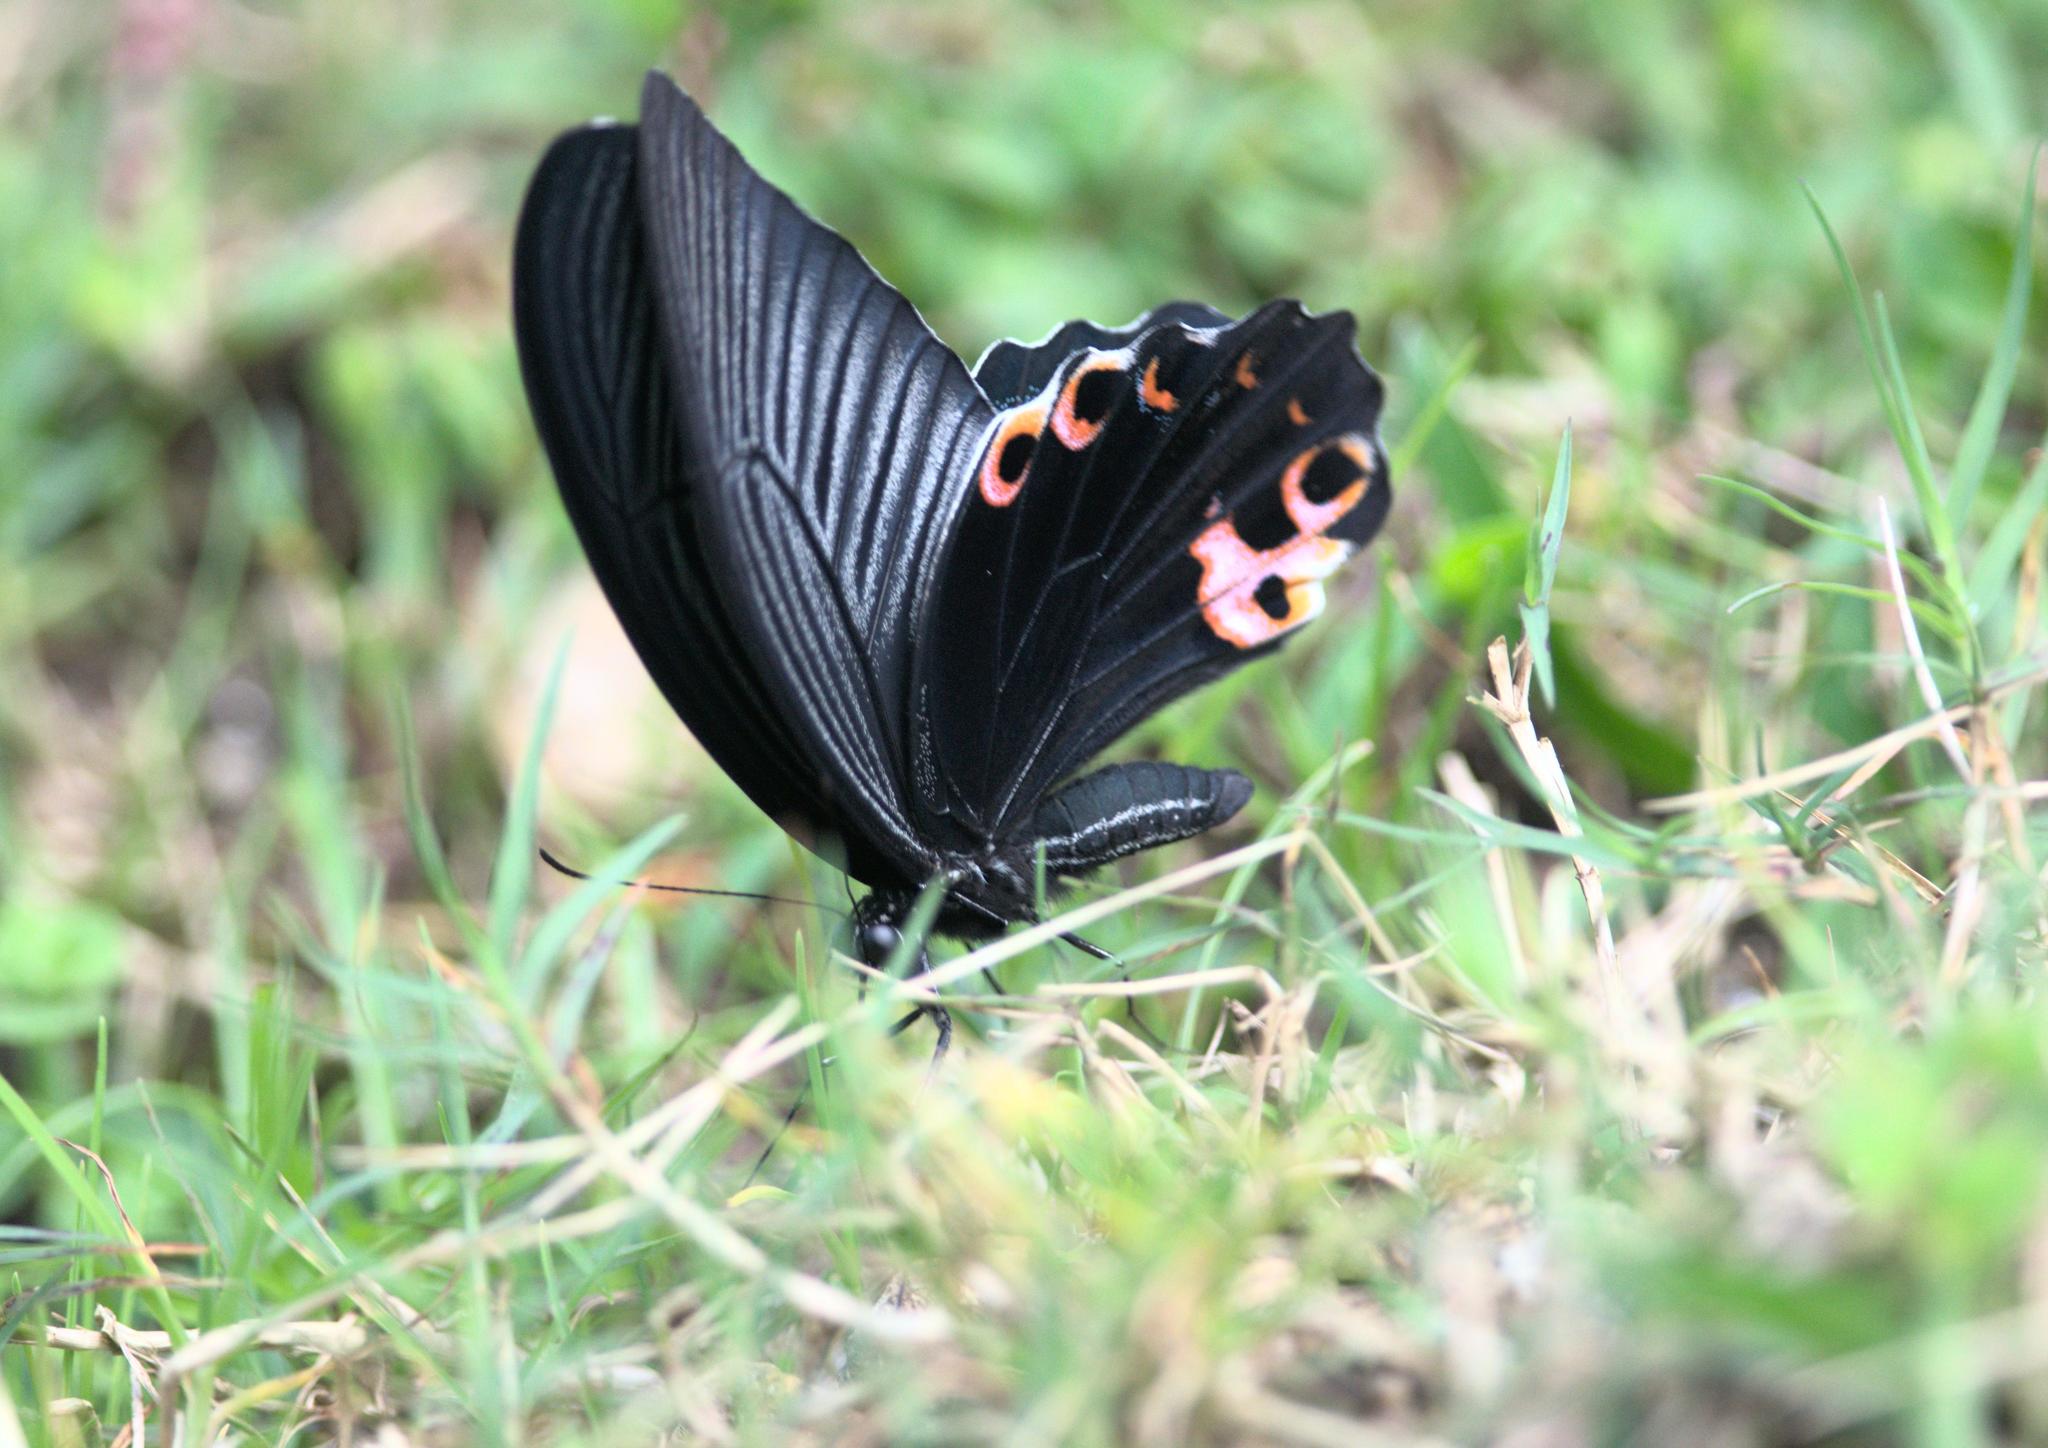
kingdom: Animalia
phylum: Arthropoda
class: Insecta
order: Lepidoptera
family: Papilionidae
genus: Papilio
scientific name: Papilio protenor
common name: Spangle
